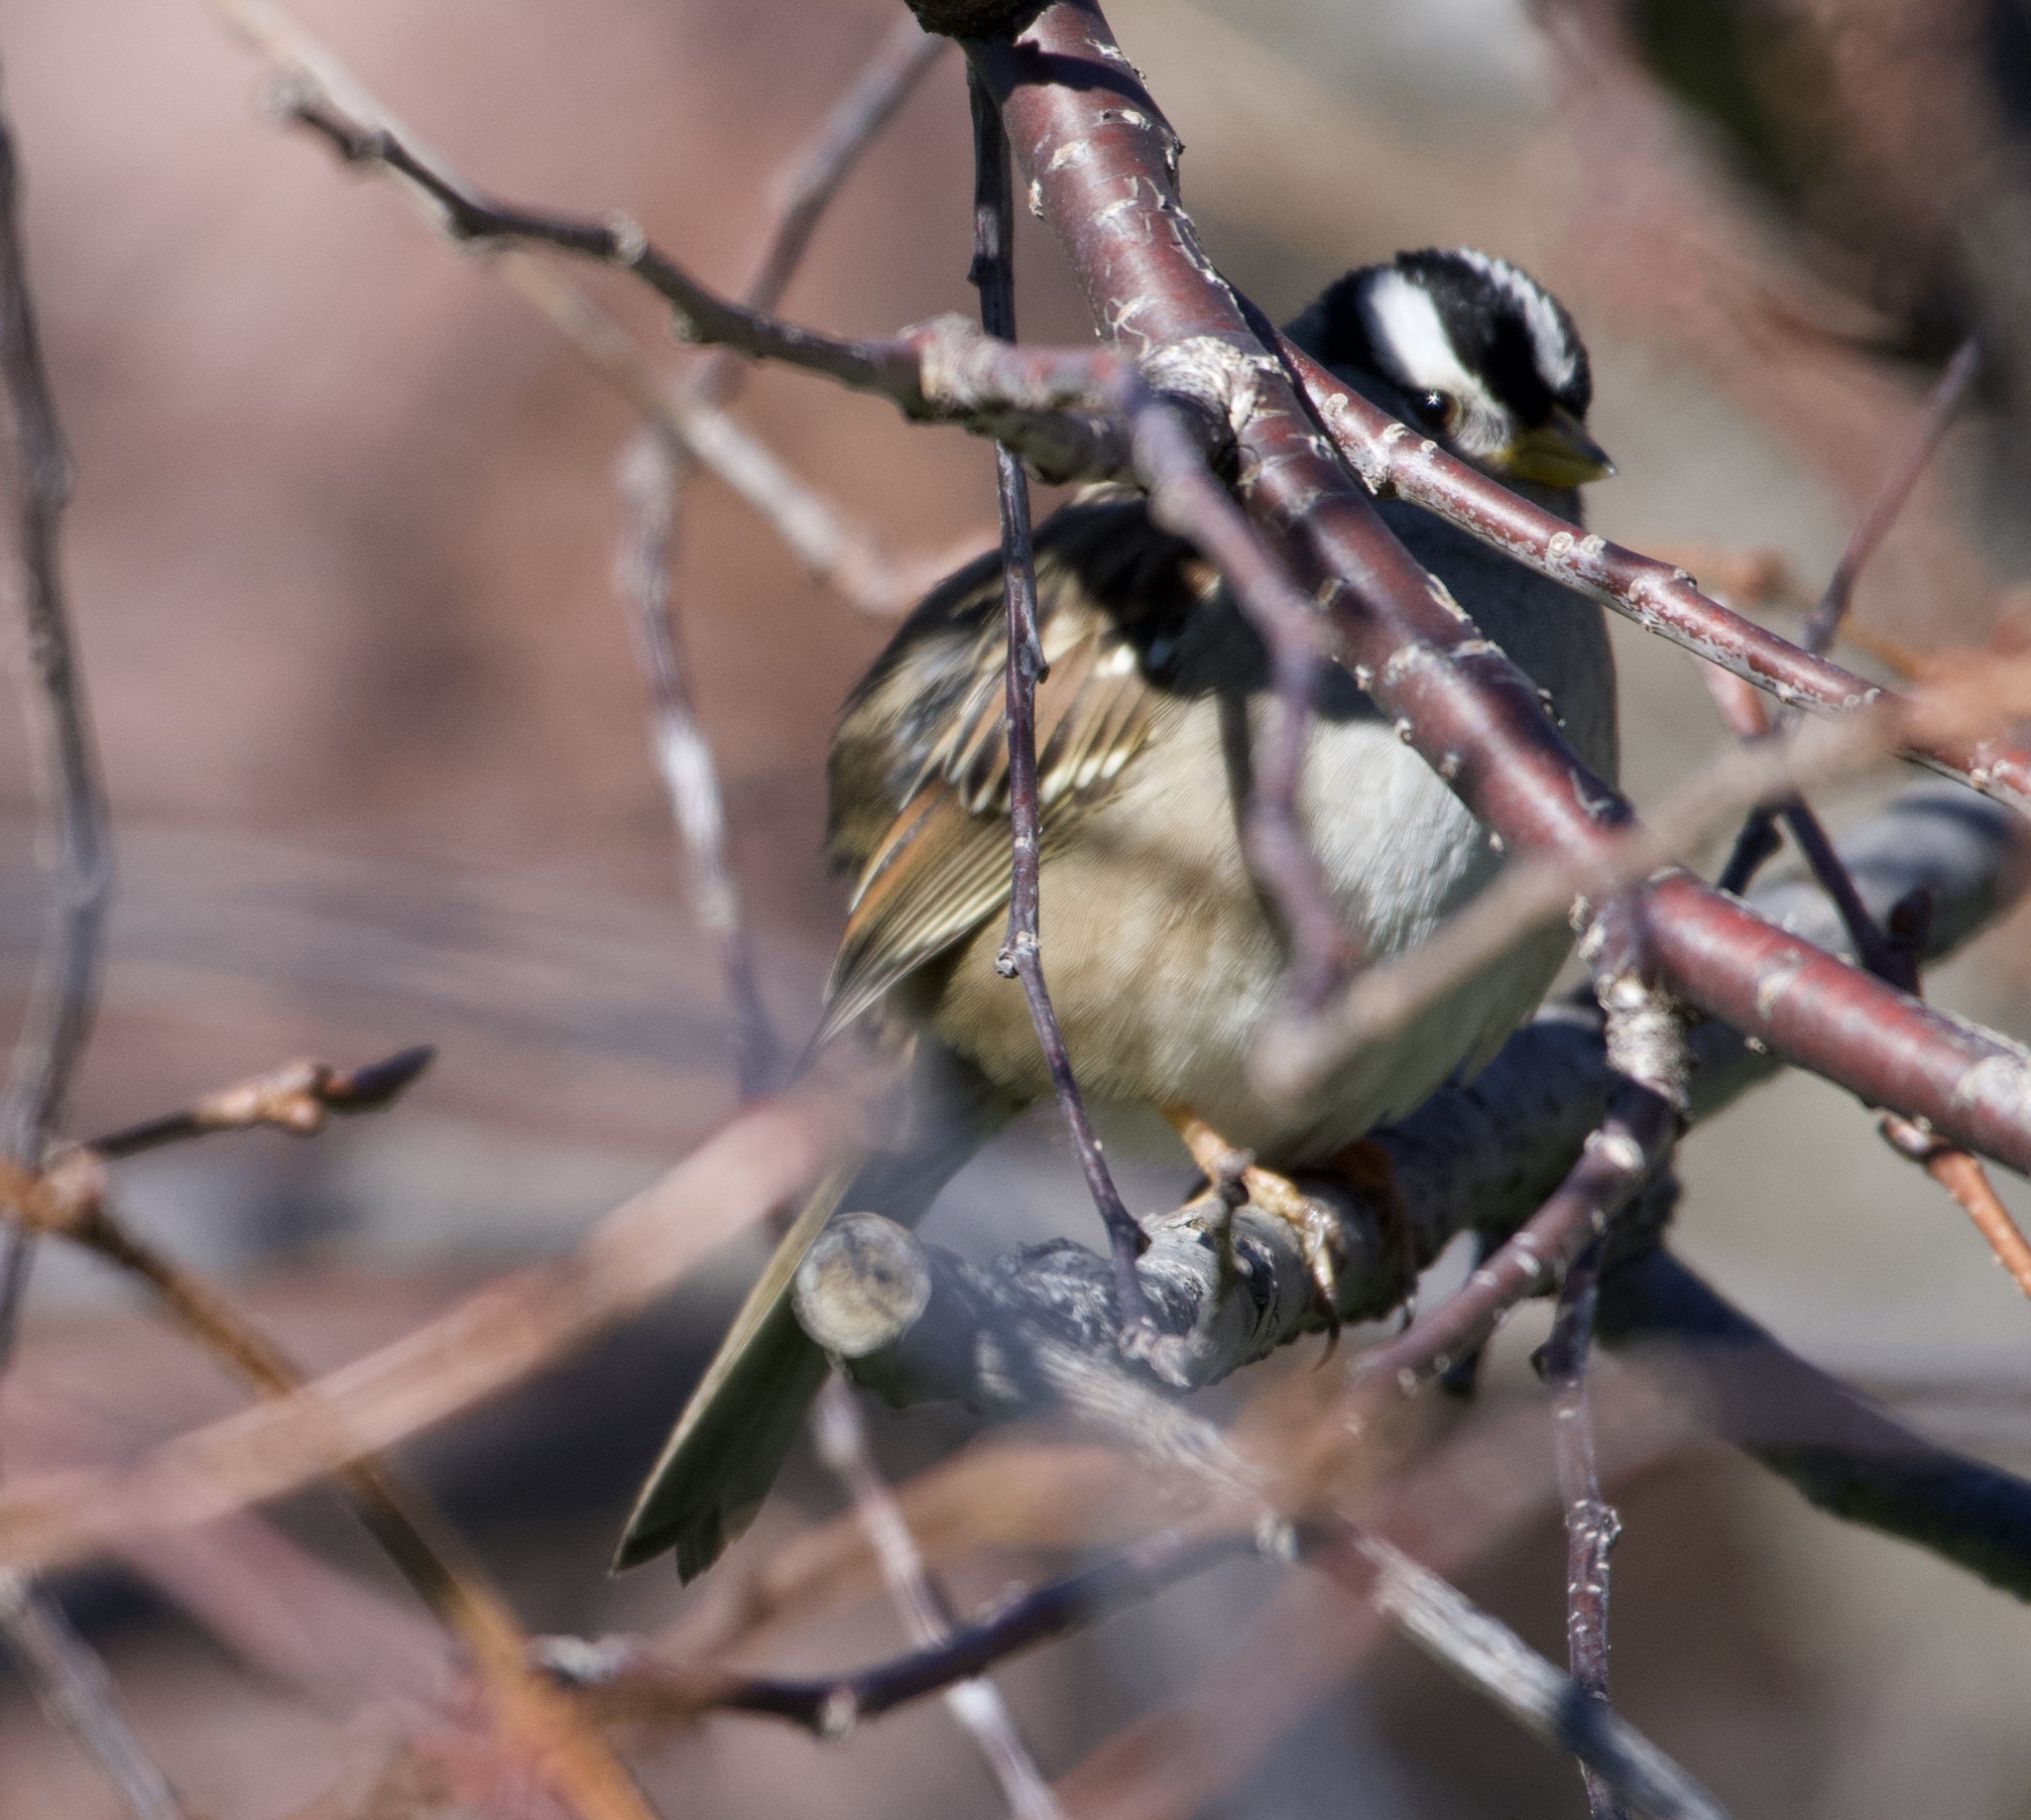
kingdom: Animalia
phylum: Chordata
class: Aves
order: Passeriformes
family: Passerellidae
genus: Zonotrichia
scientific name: Zonotrichia leucophrys
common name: White-crowned sparrow
